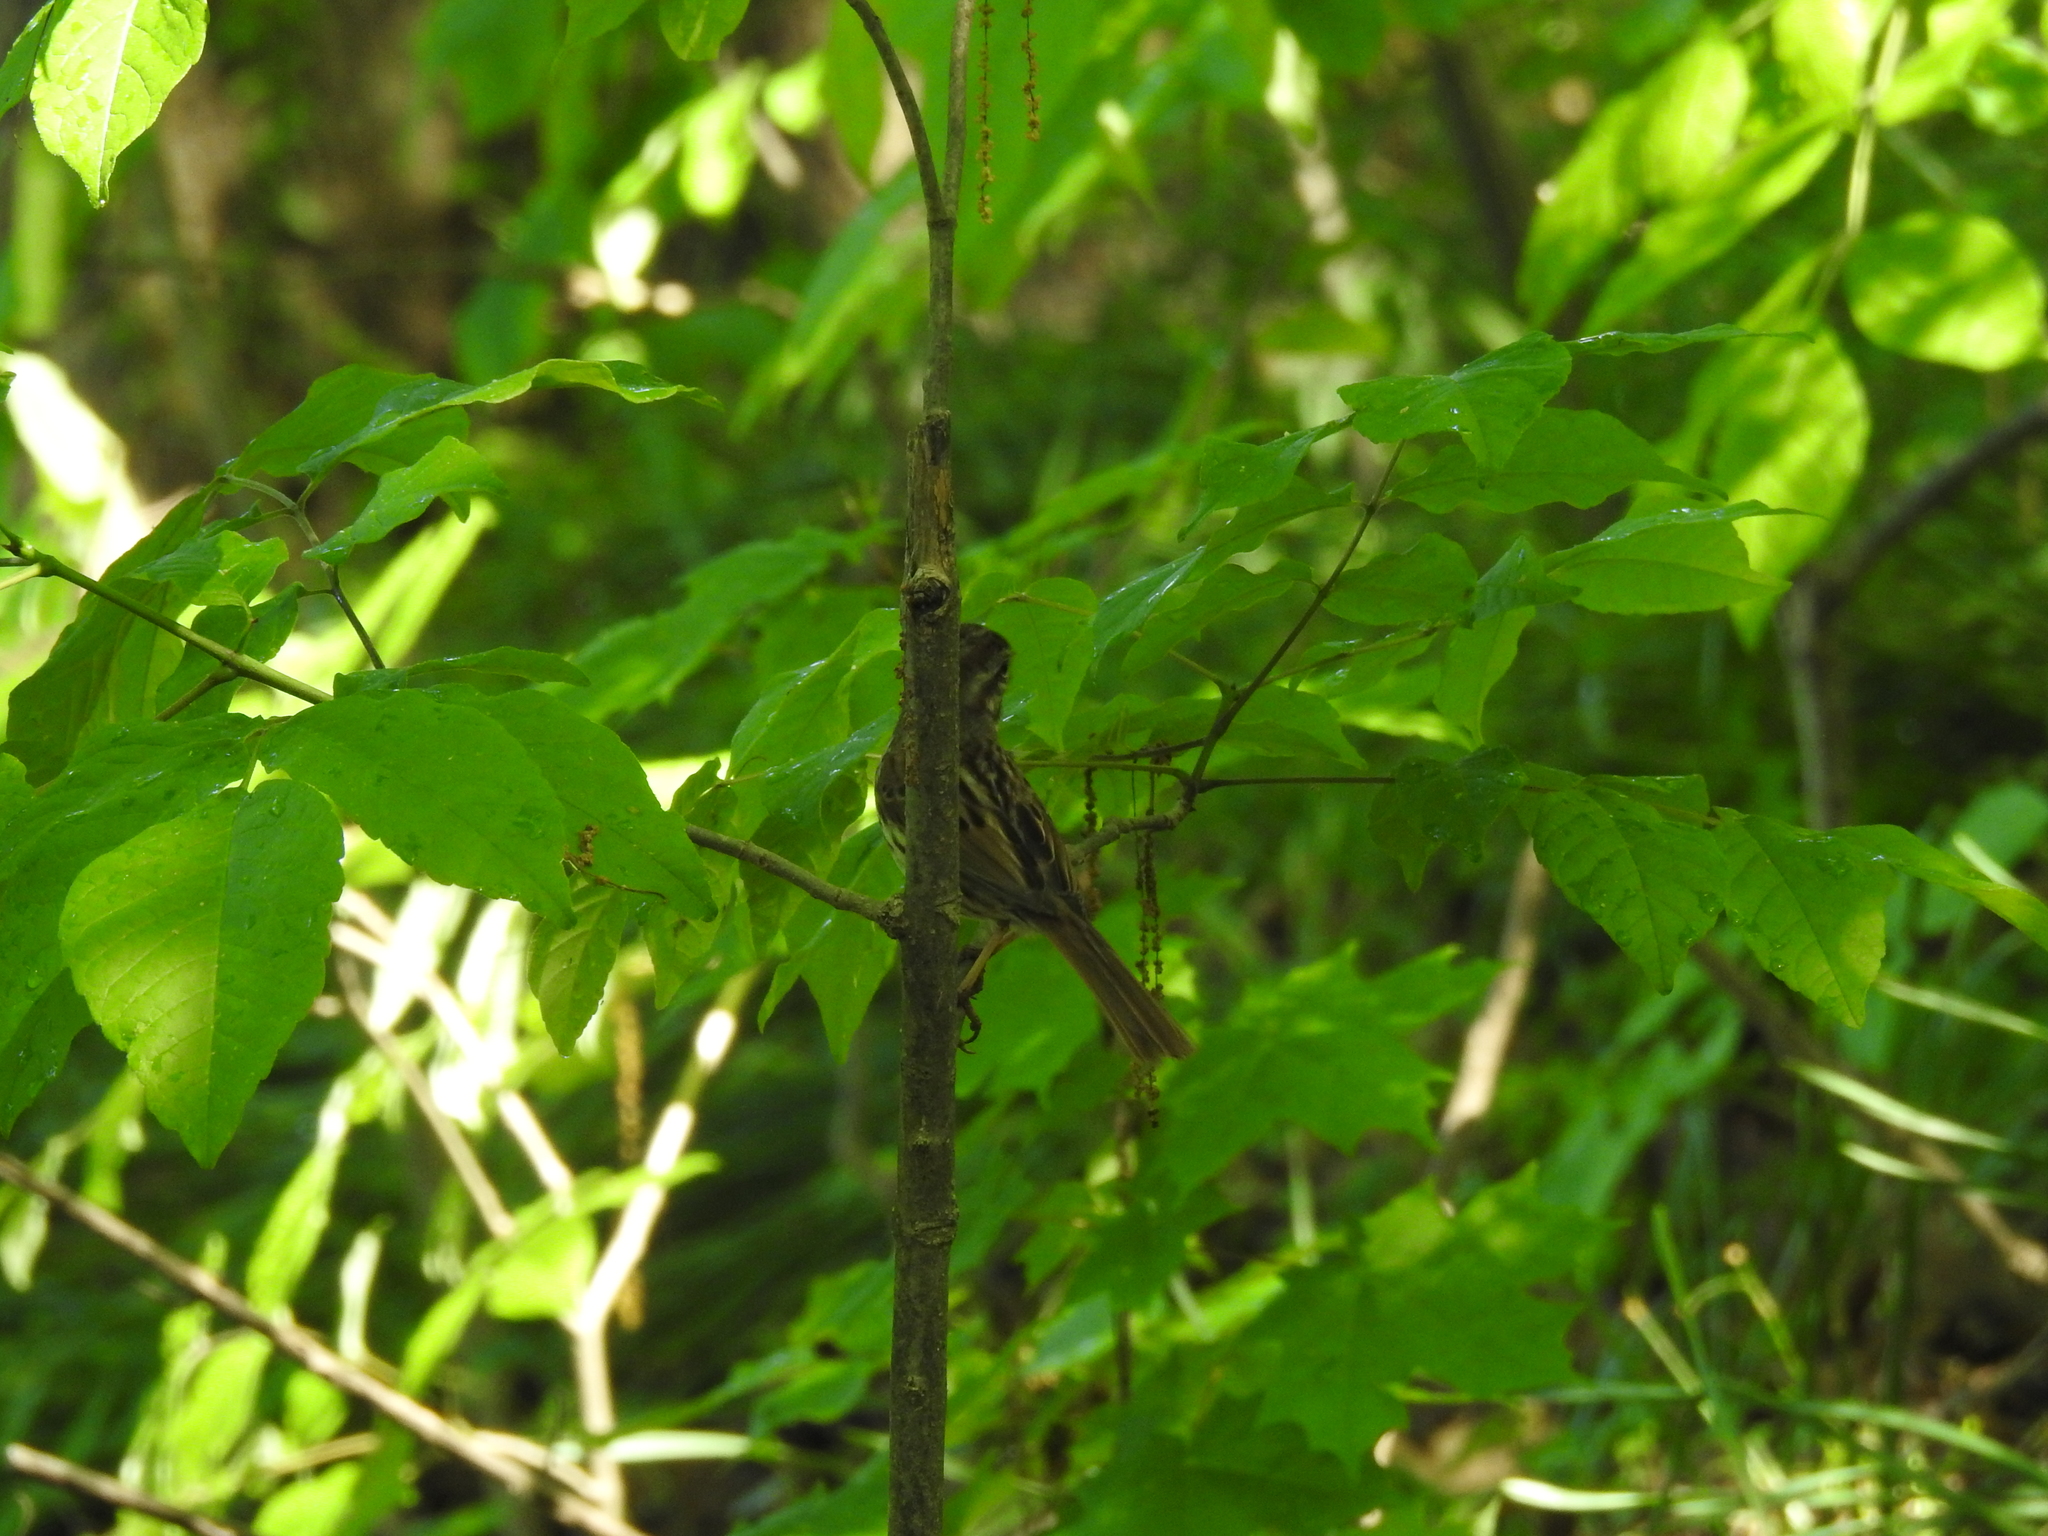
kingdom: Animalia
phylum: Chordata
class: Aves
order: Passeriformes
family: Passerellidae
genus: Melospiza
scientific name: Melospiza melodia
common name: Song sparrow
